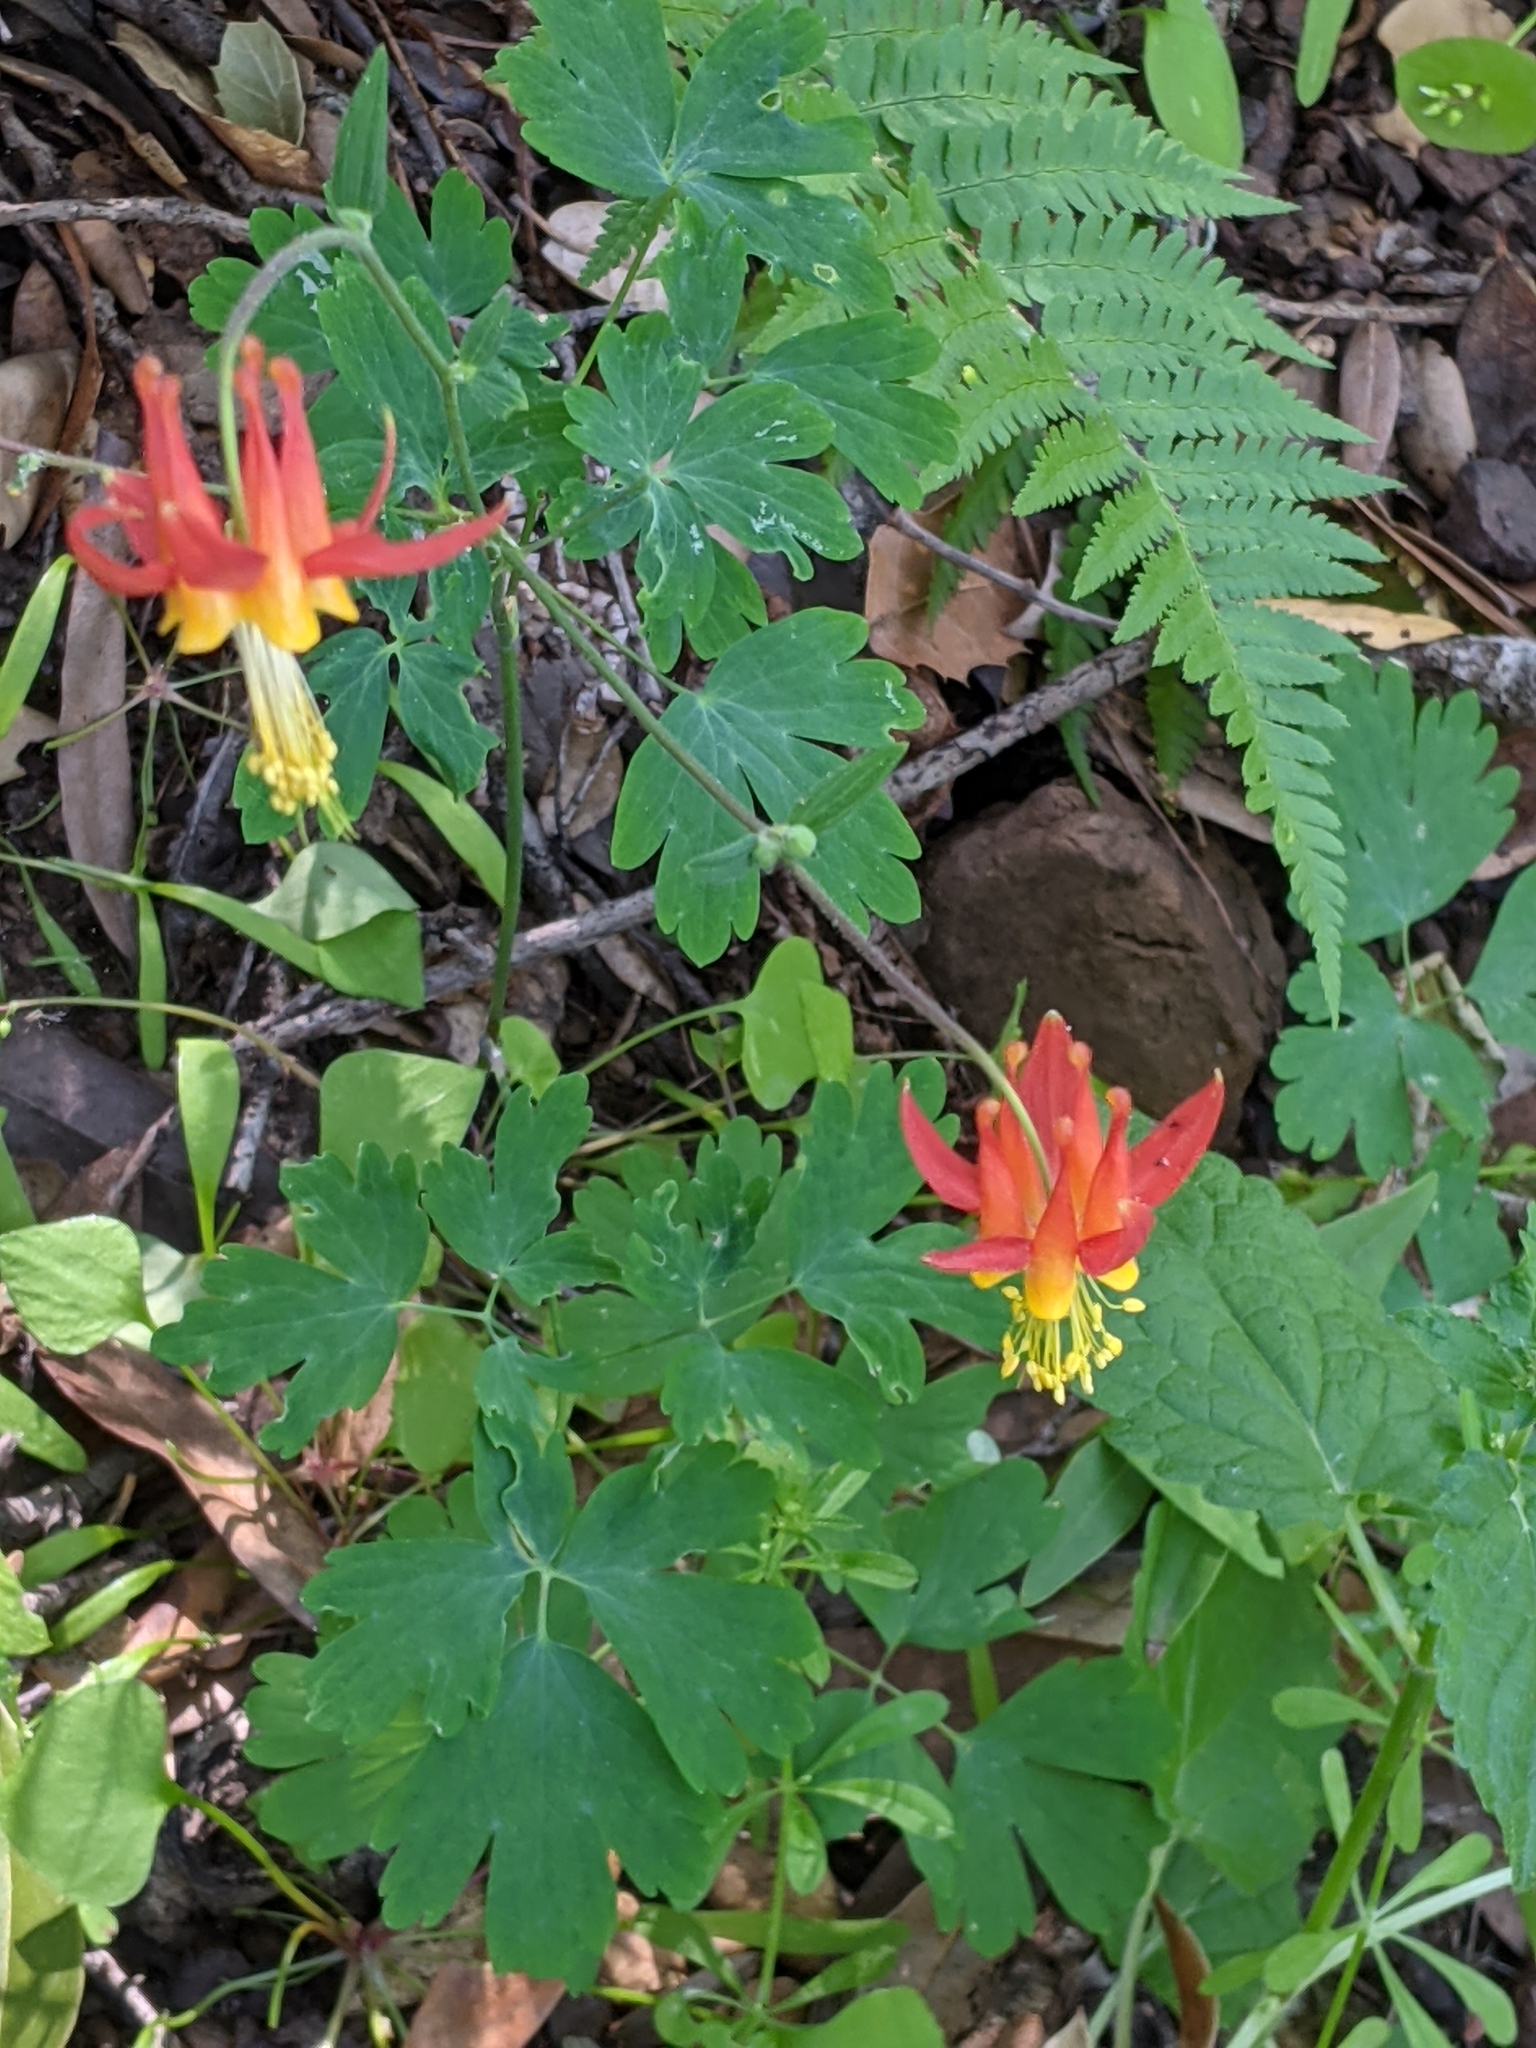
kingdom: Plantae
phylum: Tracheophyta
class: Magnoliopsida
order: Ranunculales
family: Ranunculaceae
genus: Aquilegia
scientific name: Aquilegia formosa
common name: Sitka columbine
